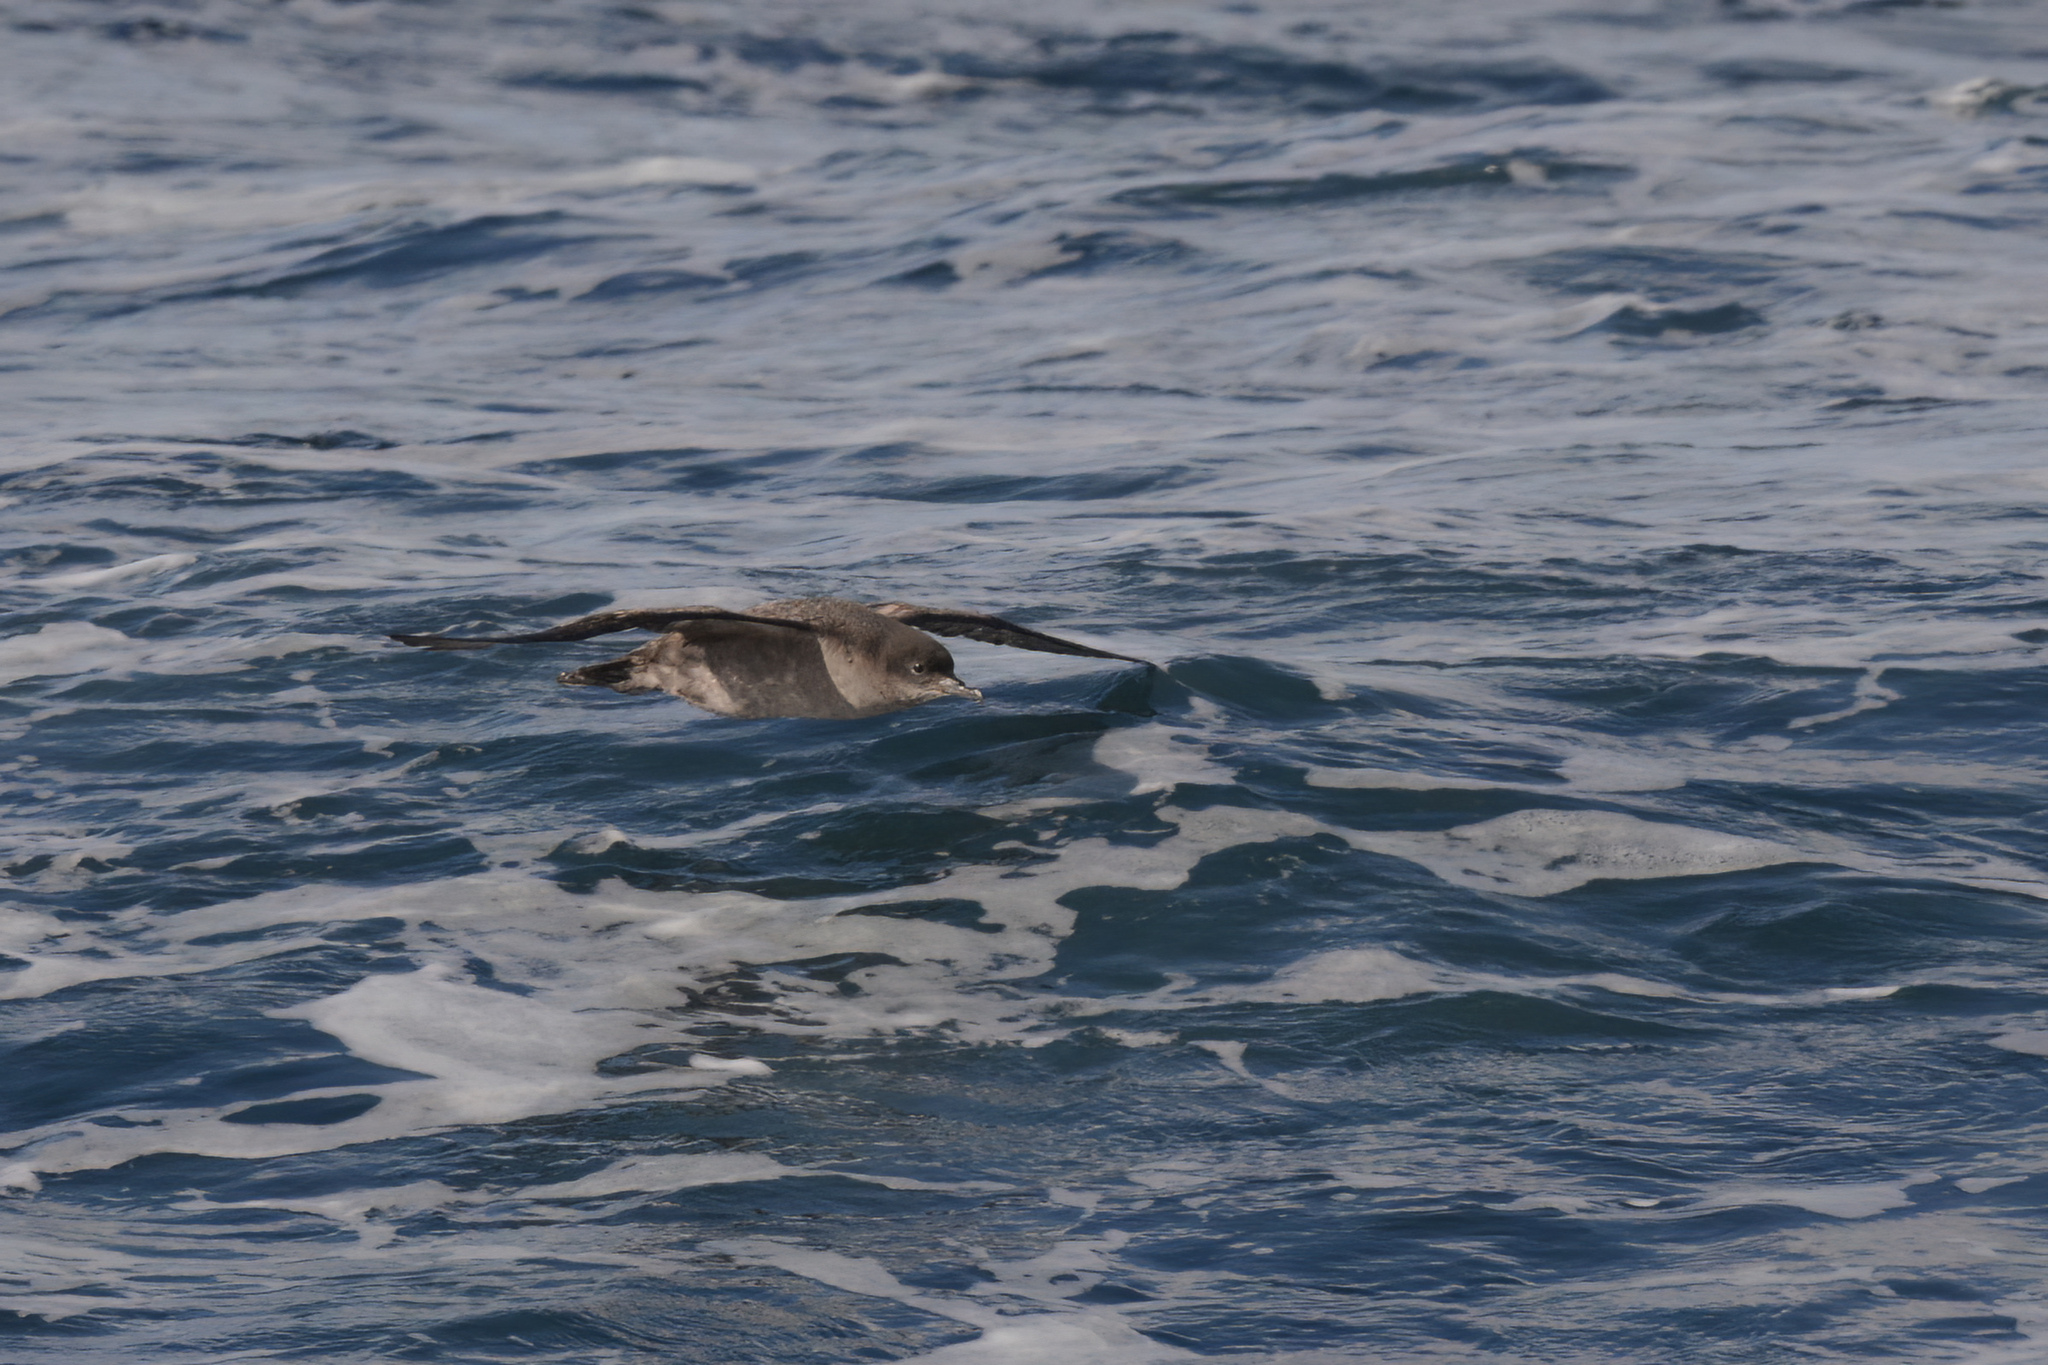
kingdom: Animalia
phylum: Chordata
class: Aves
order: Procellariiformes
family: Procellariidae
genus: Puffinus
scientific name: Puffinus tenuirostris
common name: Short-tailed shearwater
